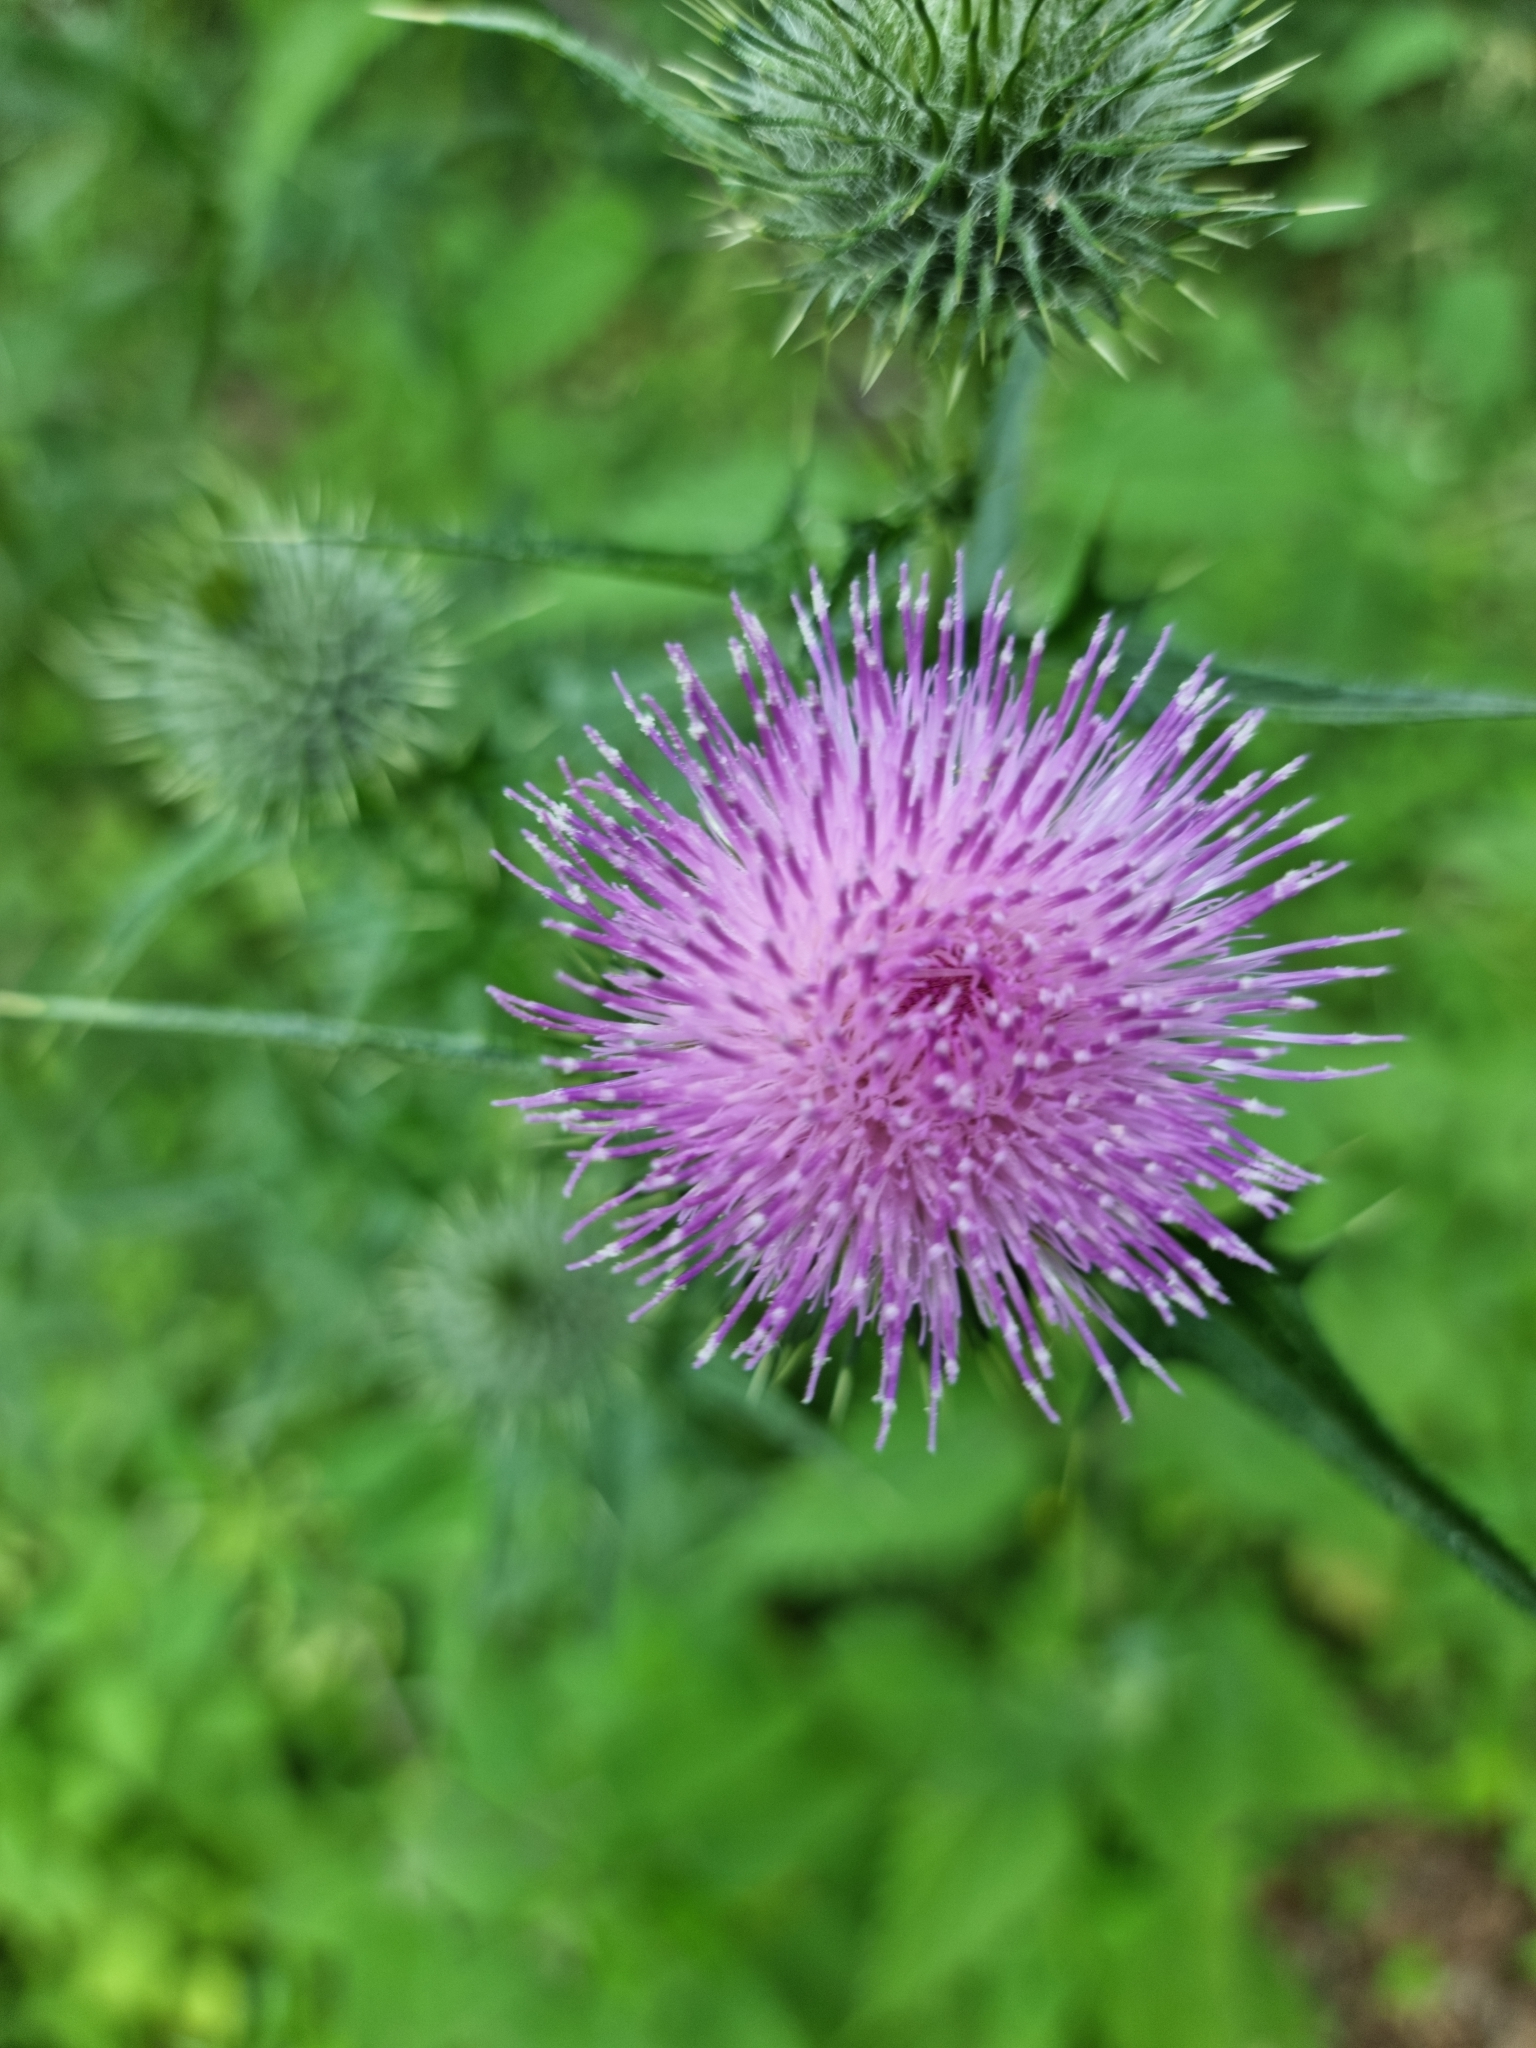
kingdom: Plantae
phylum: Tracheophyta
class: Magnoliopsida
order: Asterales
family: Asteraceae
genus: Cirsium
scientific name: Cirsium vulgare
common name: Bull thistle
